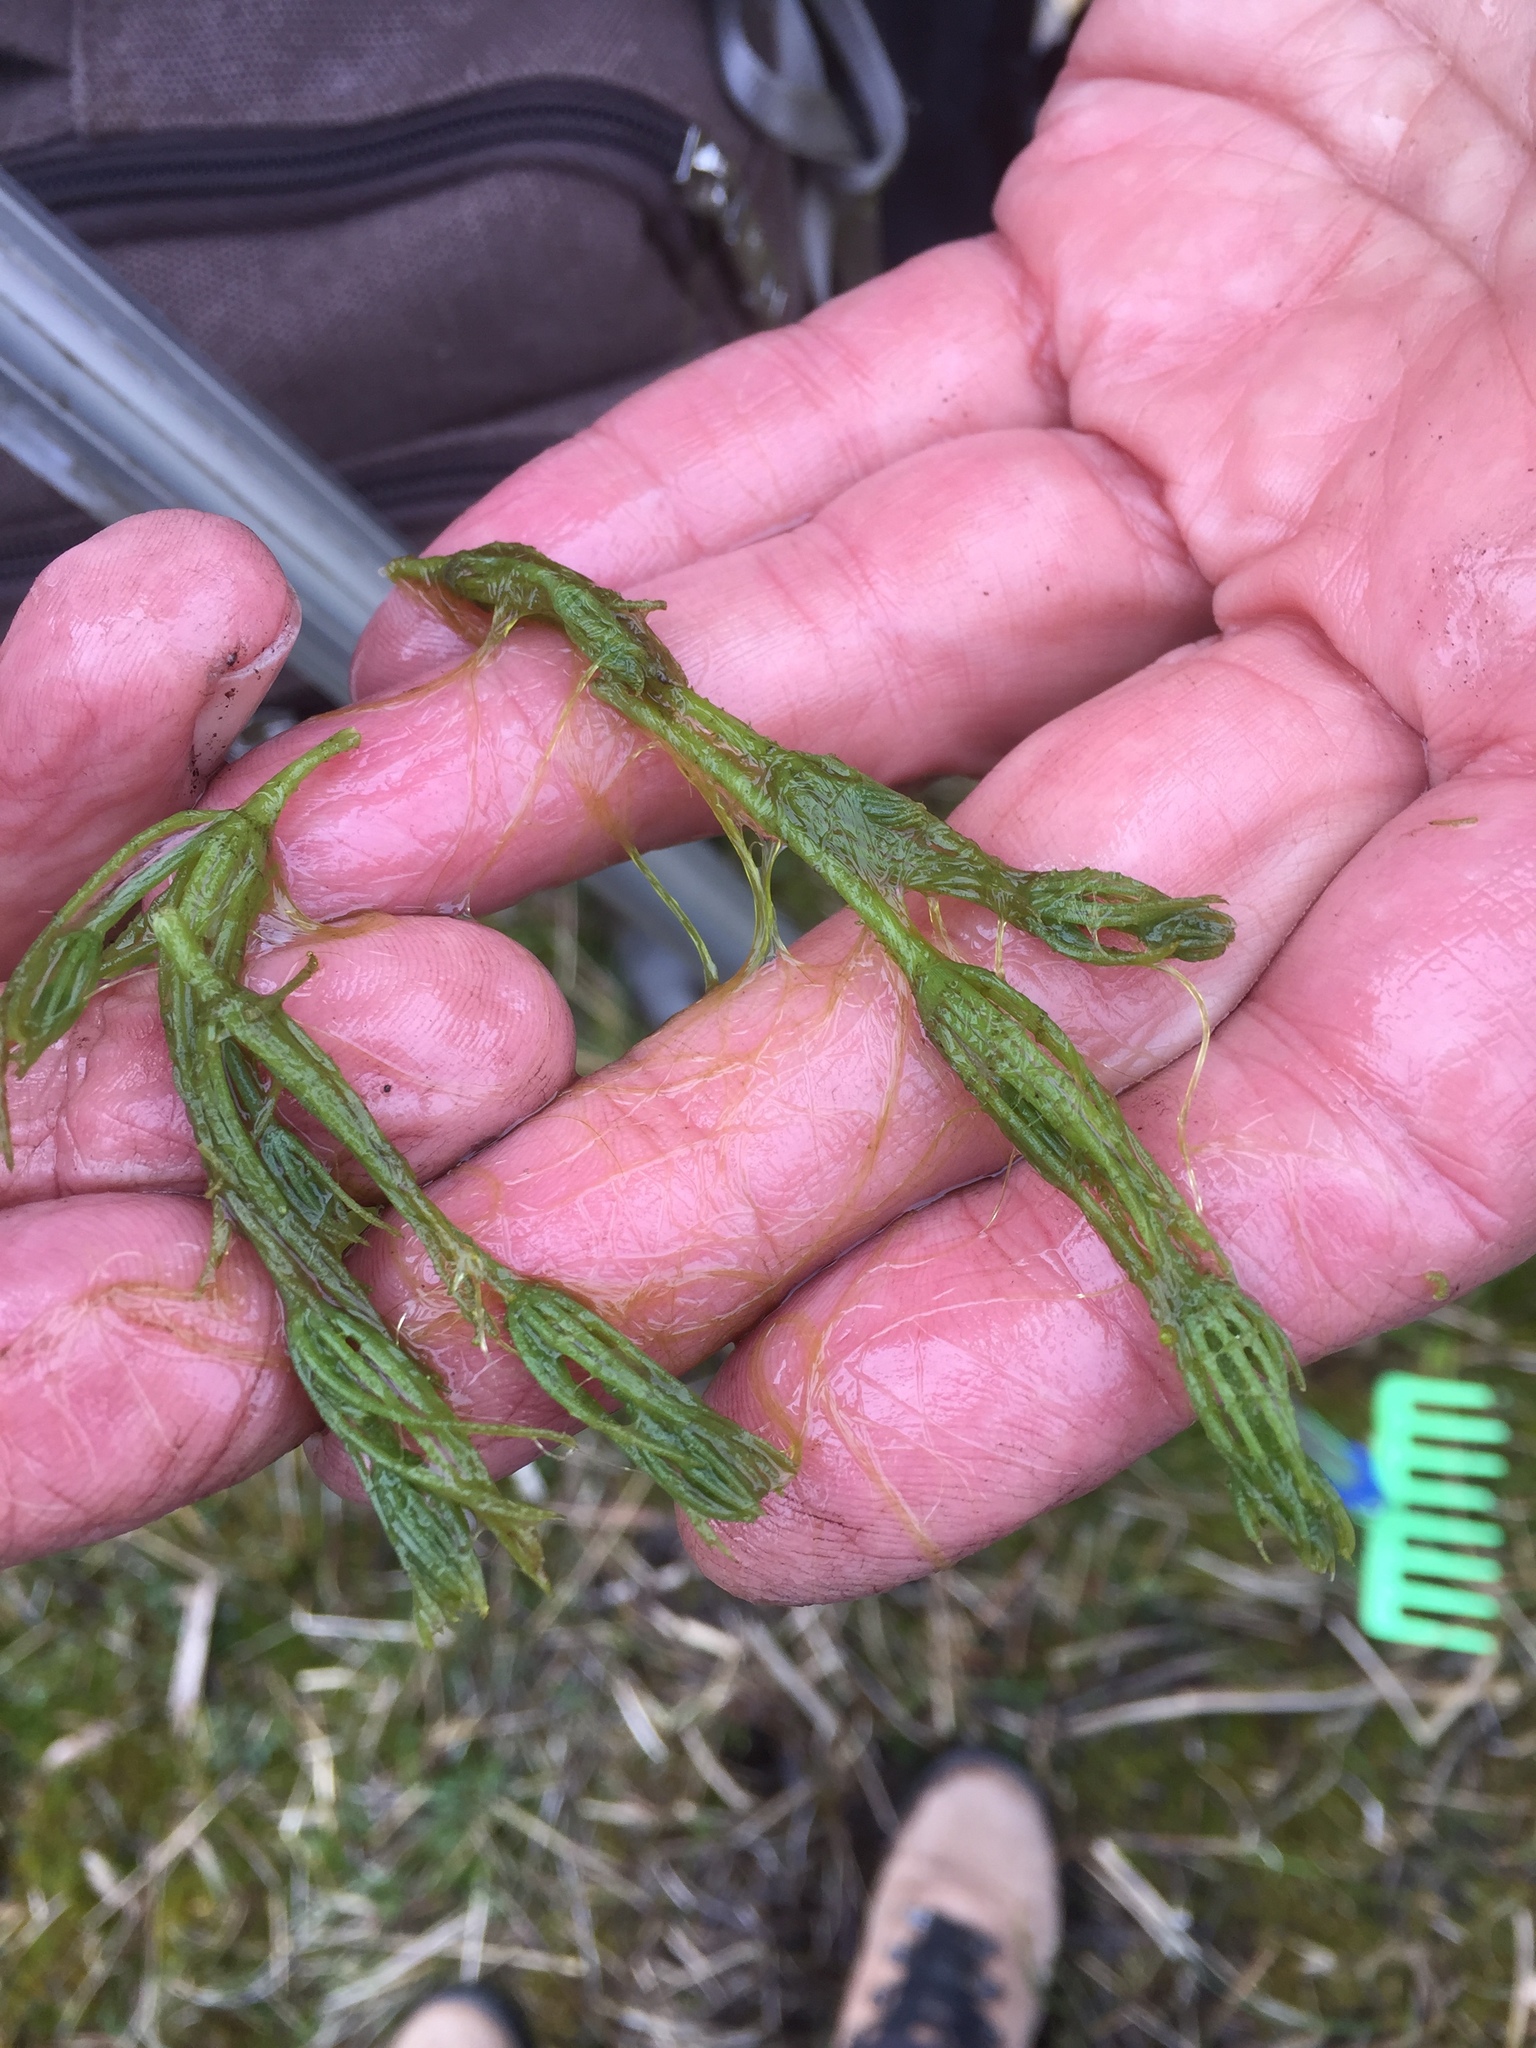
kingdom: Plantae
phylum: Charophyta
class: Charophyceae
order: Charales
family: Characeae
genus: Chara
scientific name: Chara hispida
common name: Bristly stonewort
